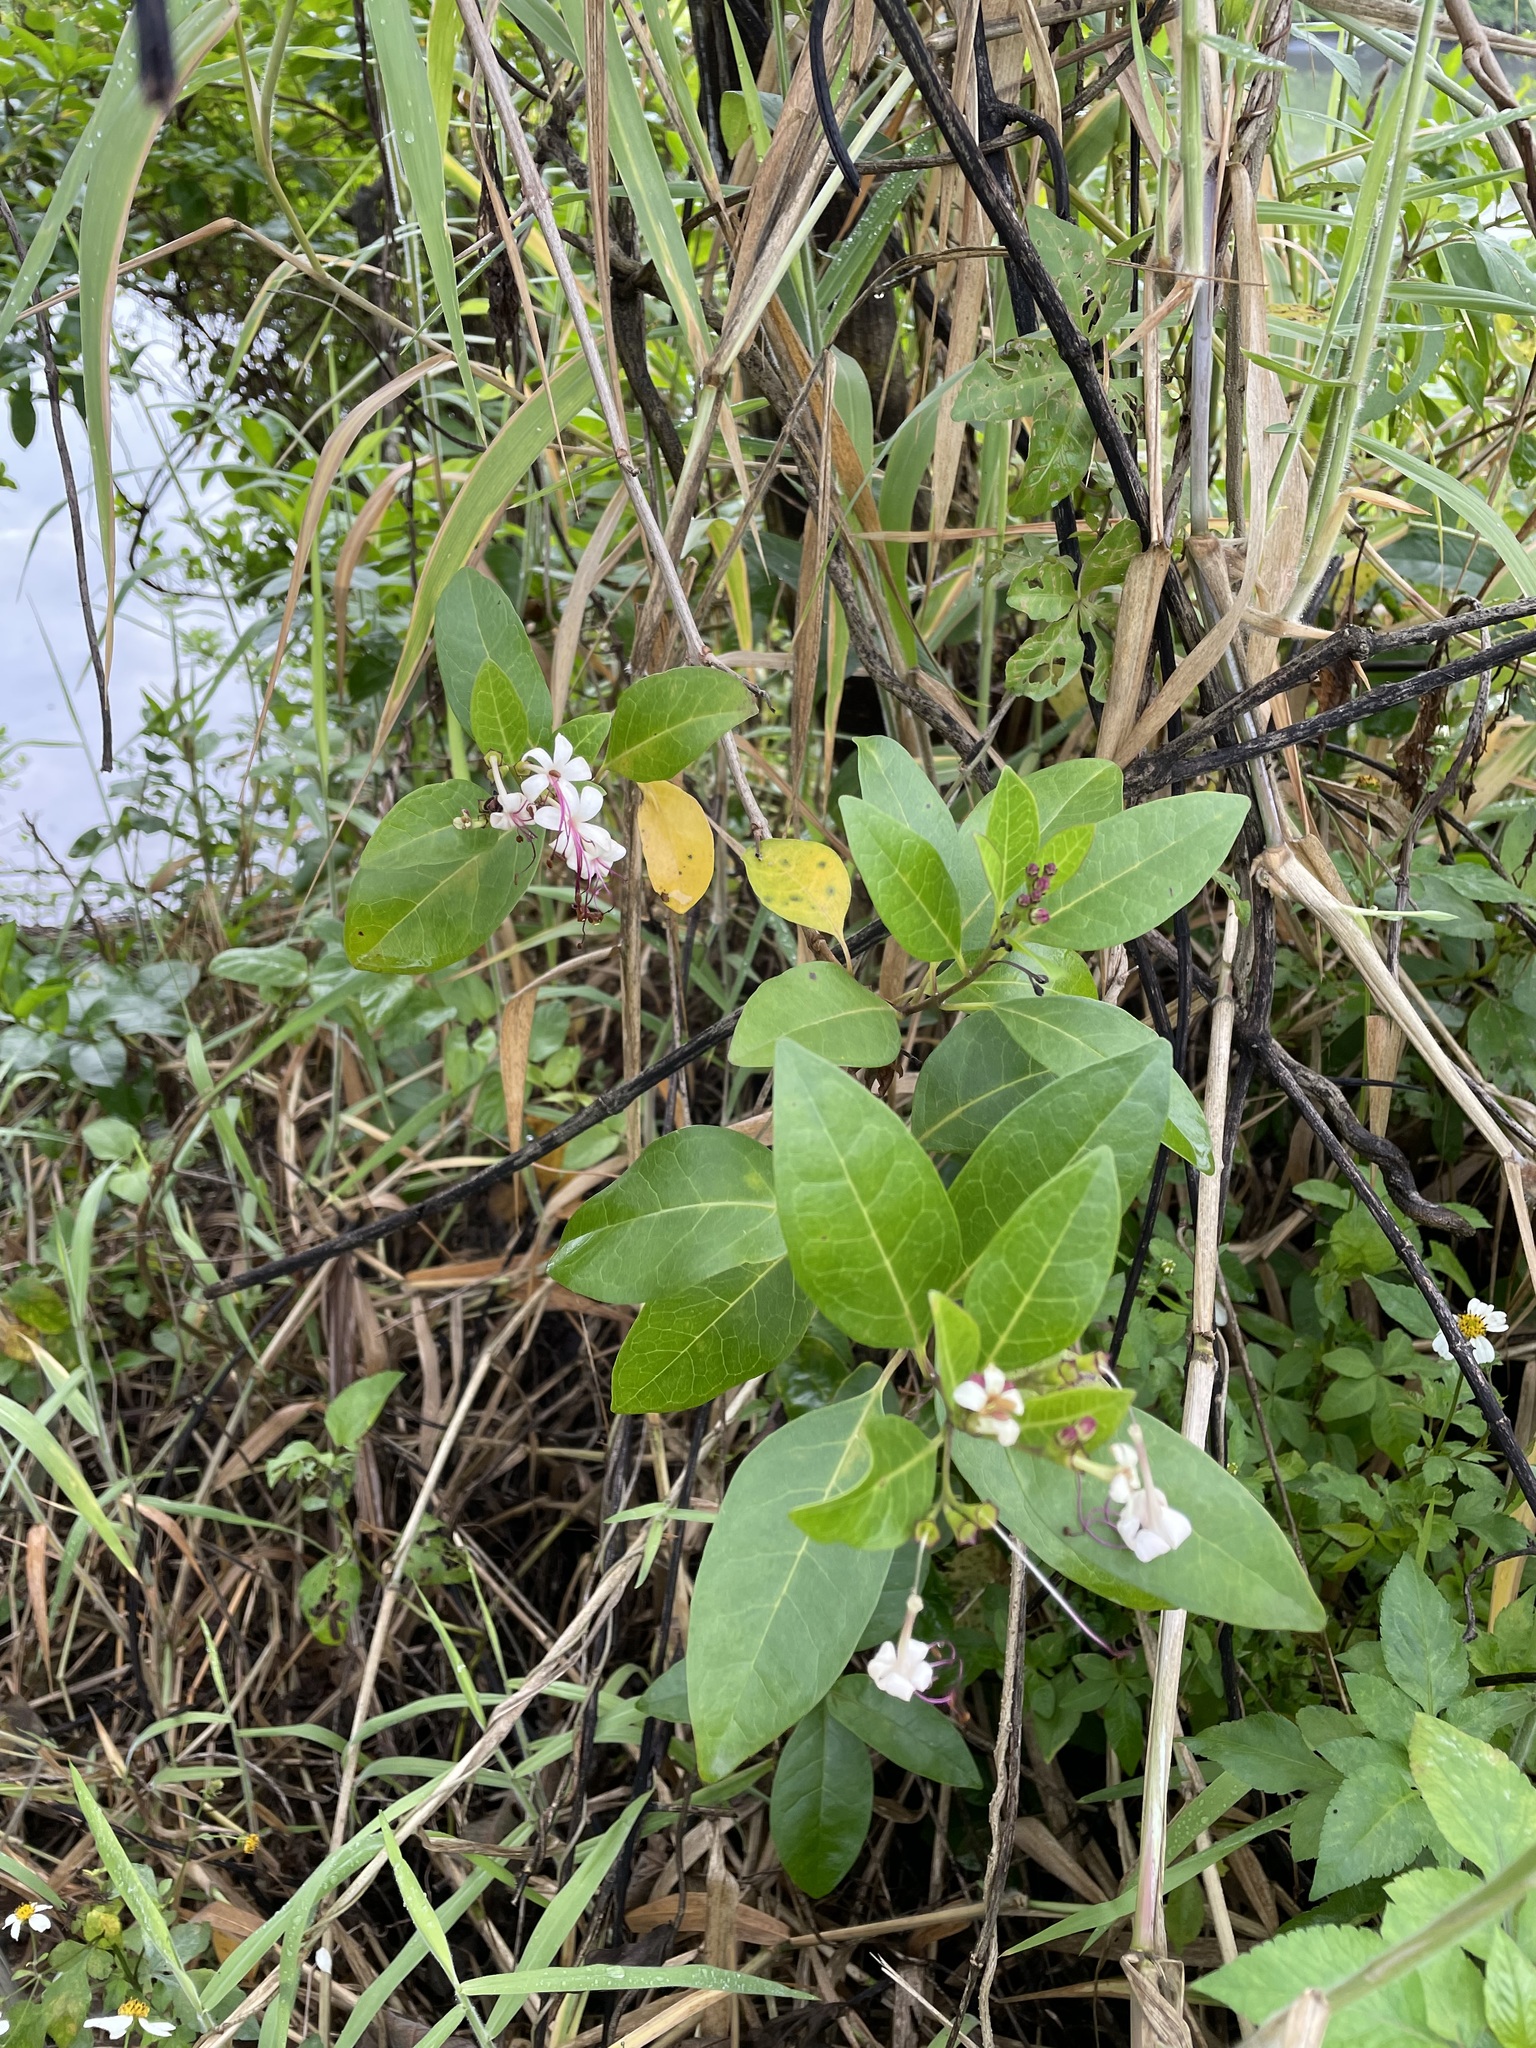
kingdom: Plantae
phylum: Tracheophyta
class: Magnoliopsida
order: Lamiales
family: Lamiaceae
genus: Volkameria
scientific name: Volkameria inermis
